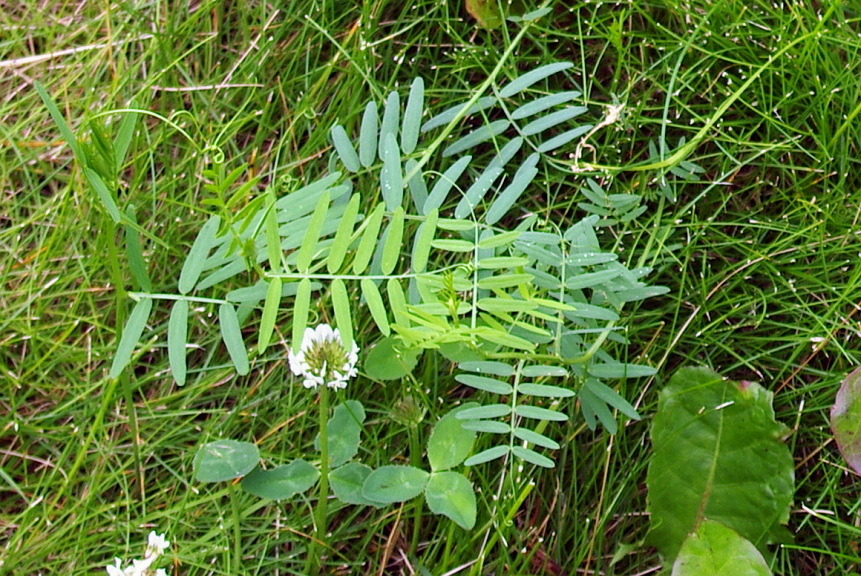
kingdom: Plantae
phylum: Tracheophyta
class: Magnoliopsida
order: Fabales
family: Fabaceae
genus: Vicia
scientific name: Vicia cracca
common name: Bird vetch
